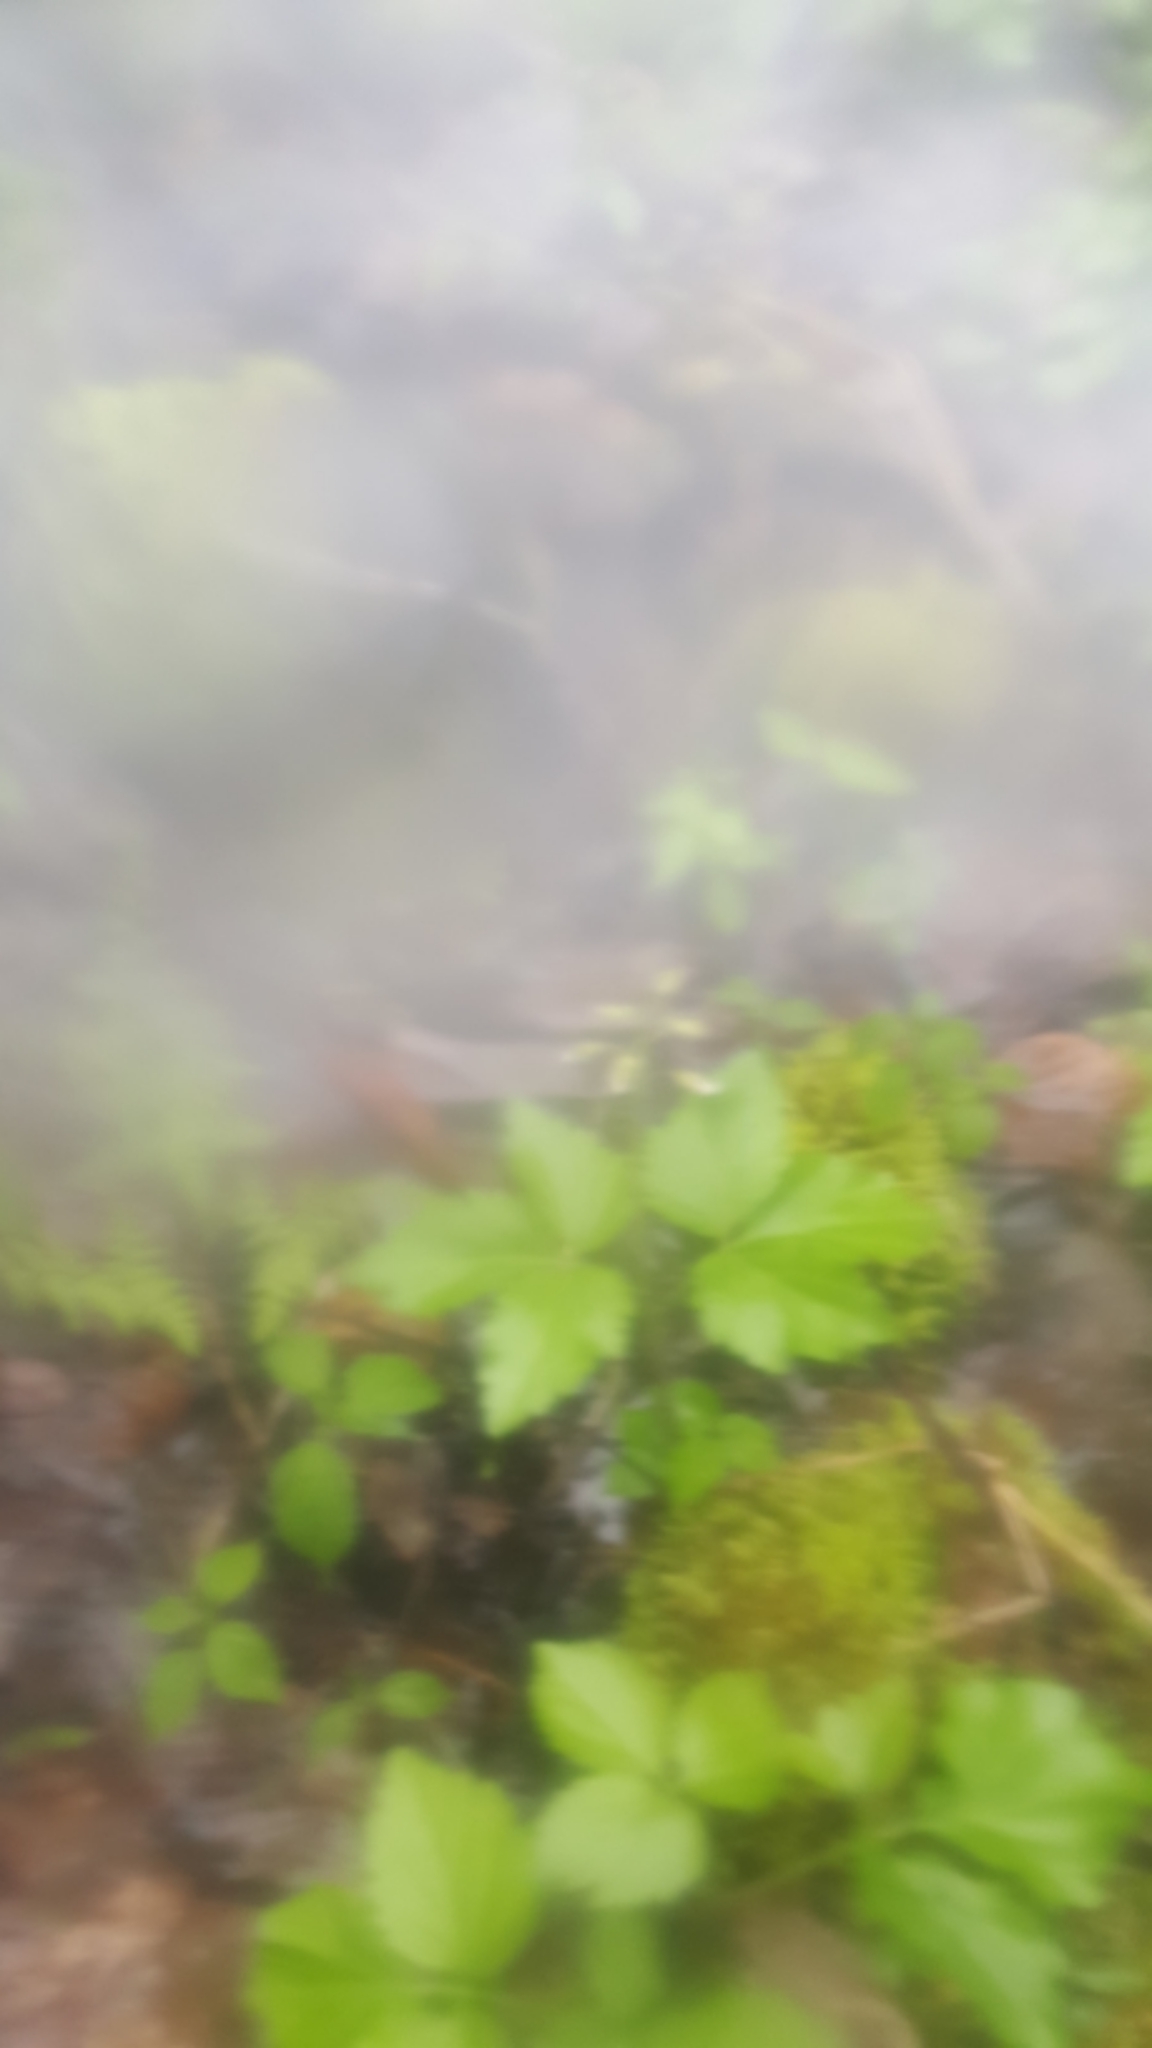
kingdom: Plantae
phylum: Tracheophyta
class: Magnoliopsida
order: Brassicales
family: Brassicaceae
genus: Cardamine
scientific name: Cardamine diphylla
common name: Broad-leaved toothwort
